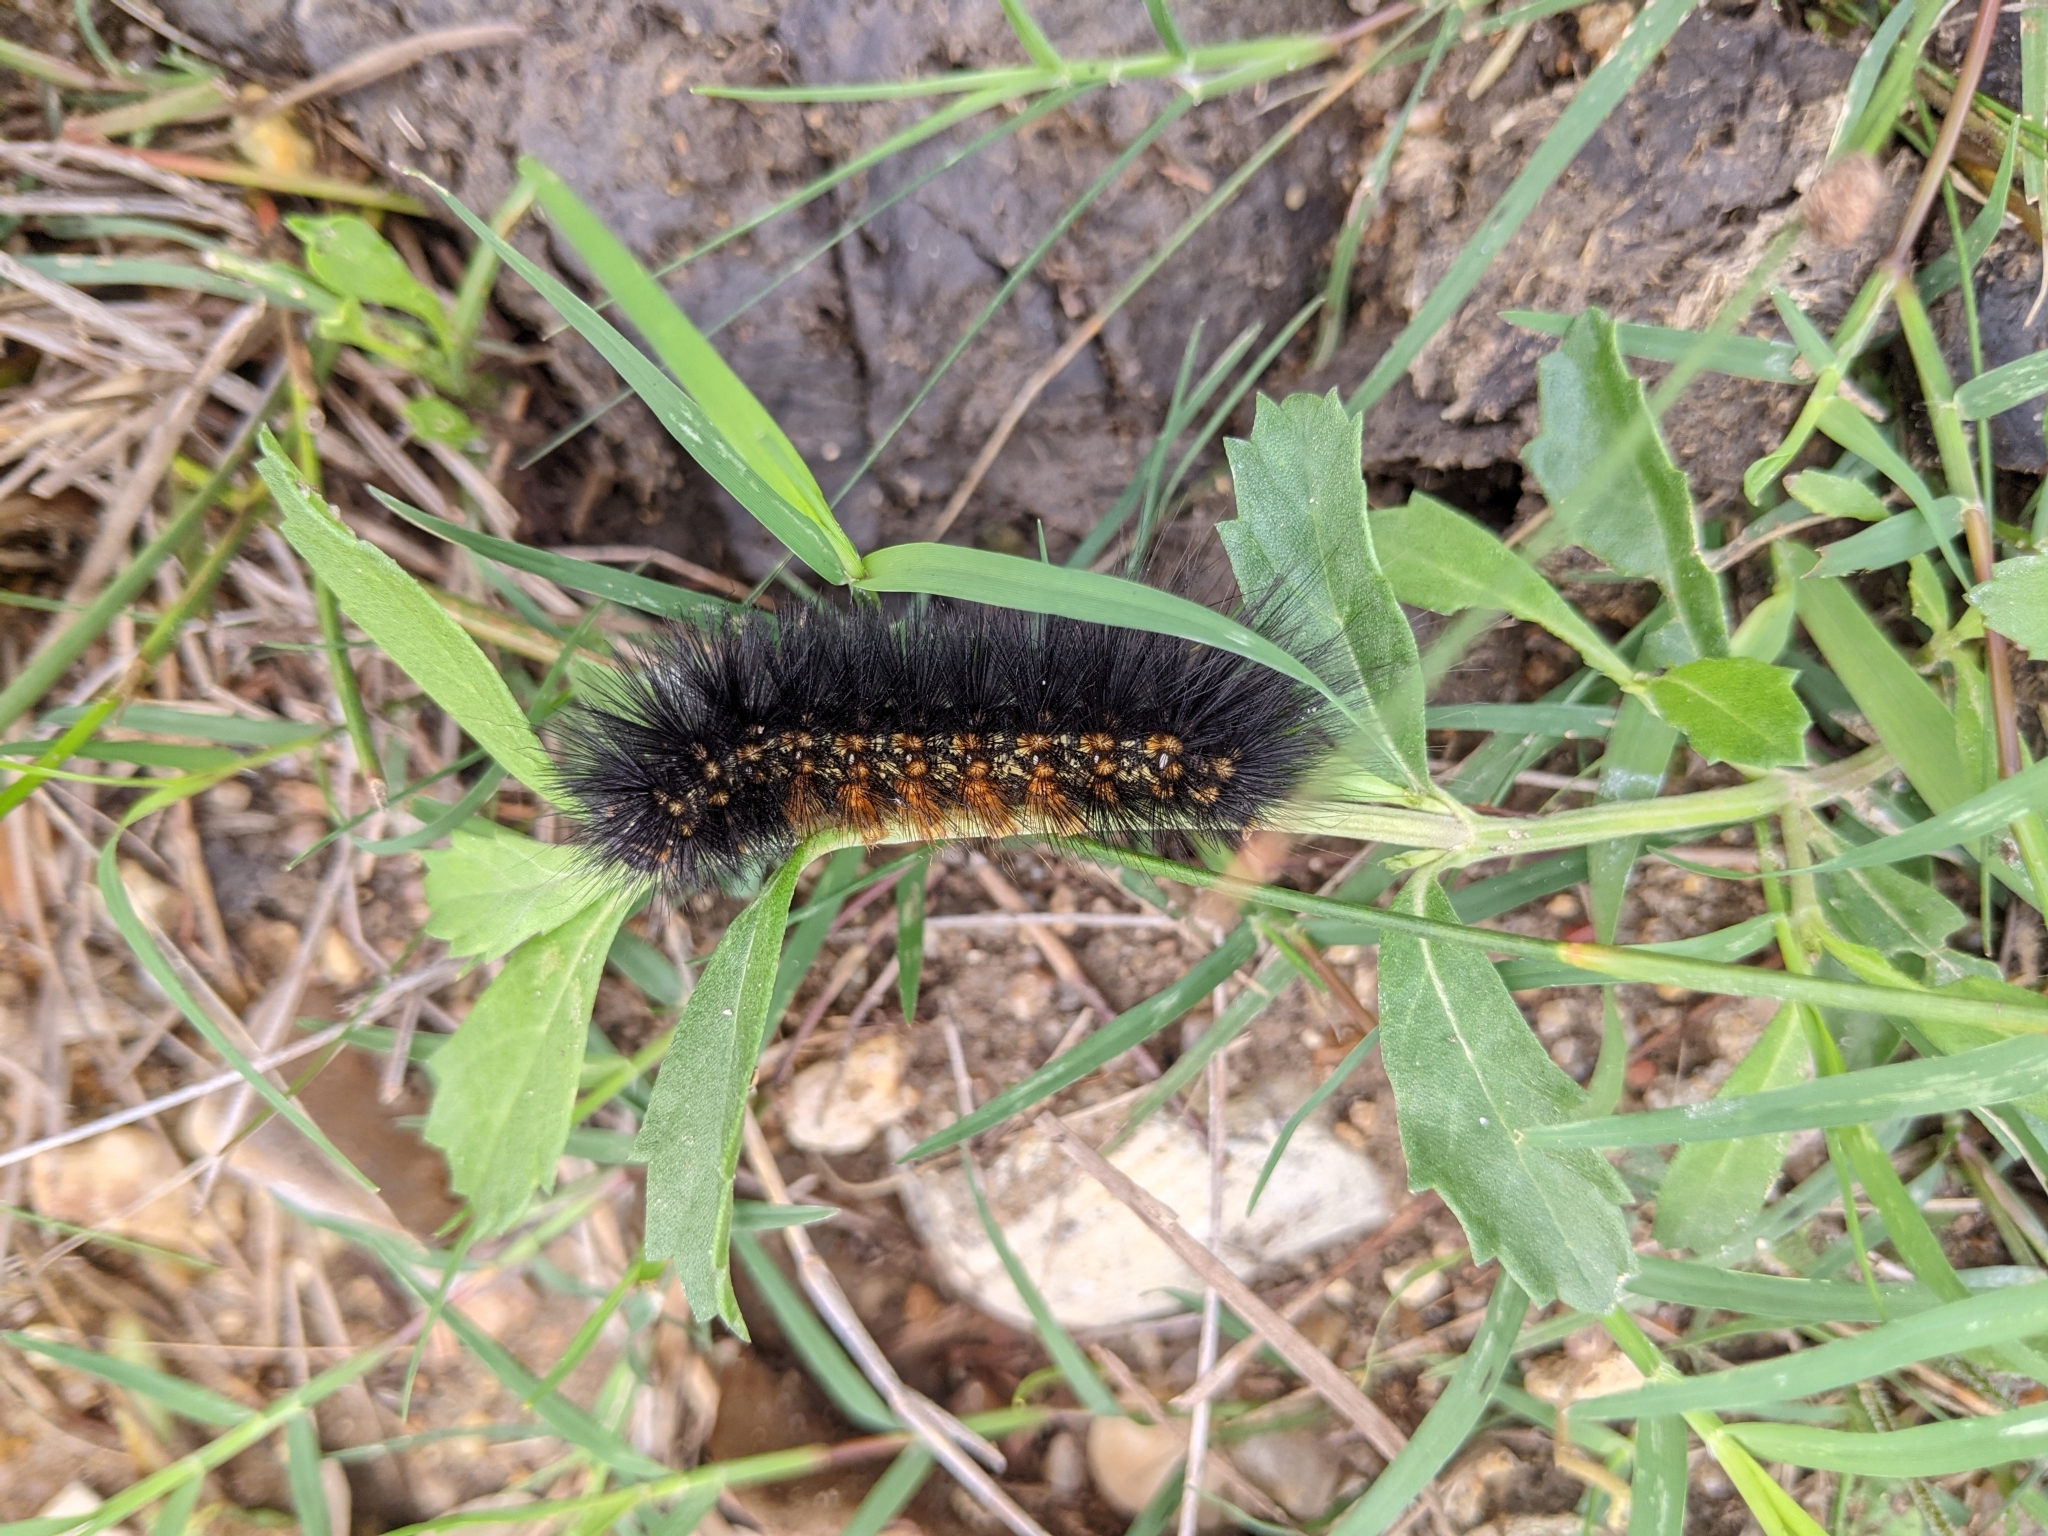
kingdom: Animalia
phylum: Arthropoda
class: Insecta
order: Lepidoptera
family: Erebidae
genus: Estigmene
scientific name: Estigmene acrea
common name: Salt marsh moth
